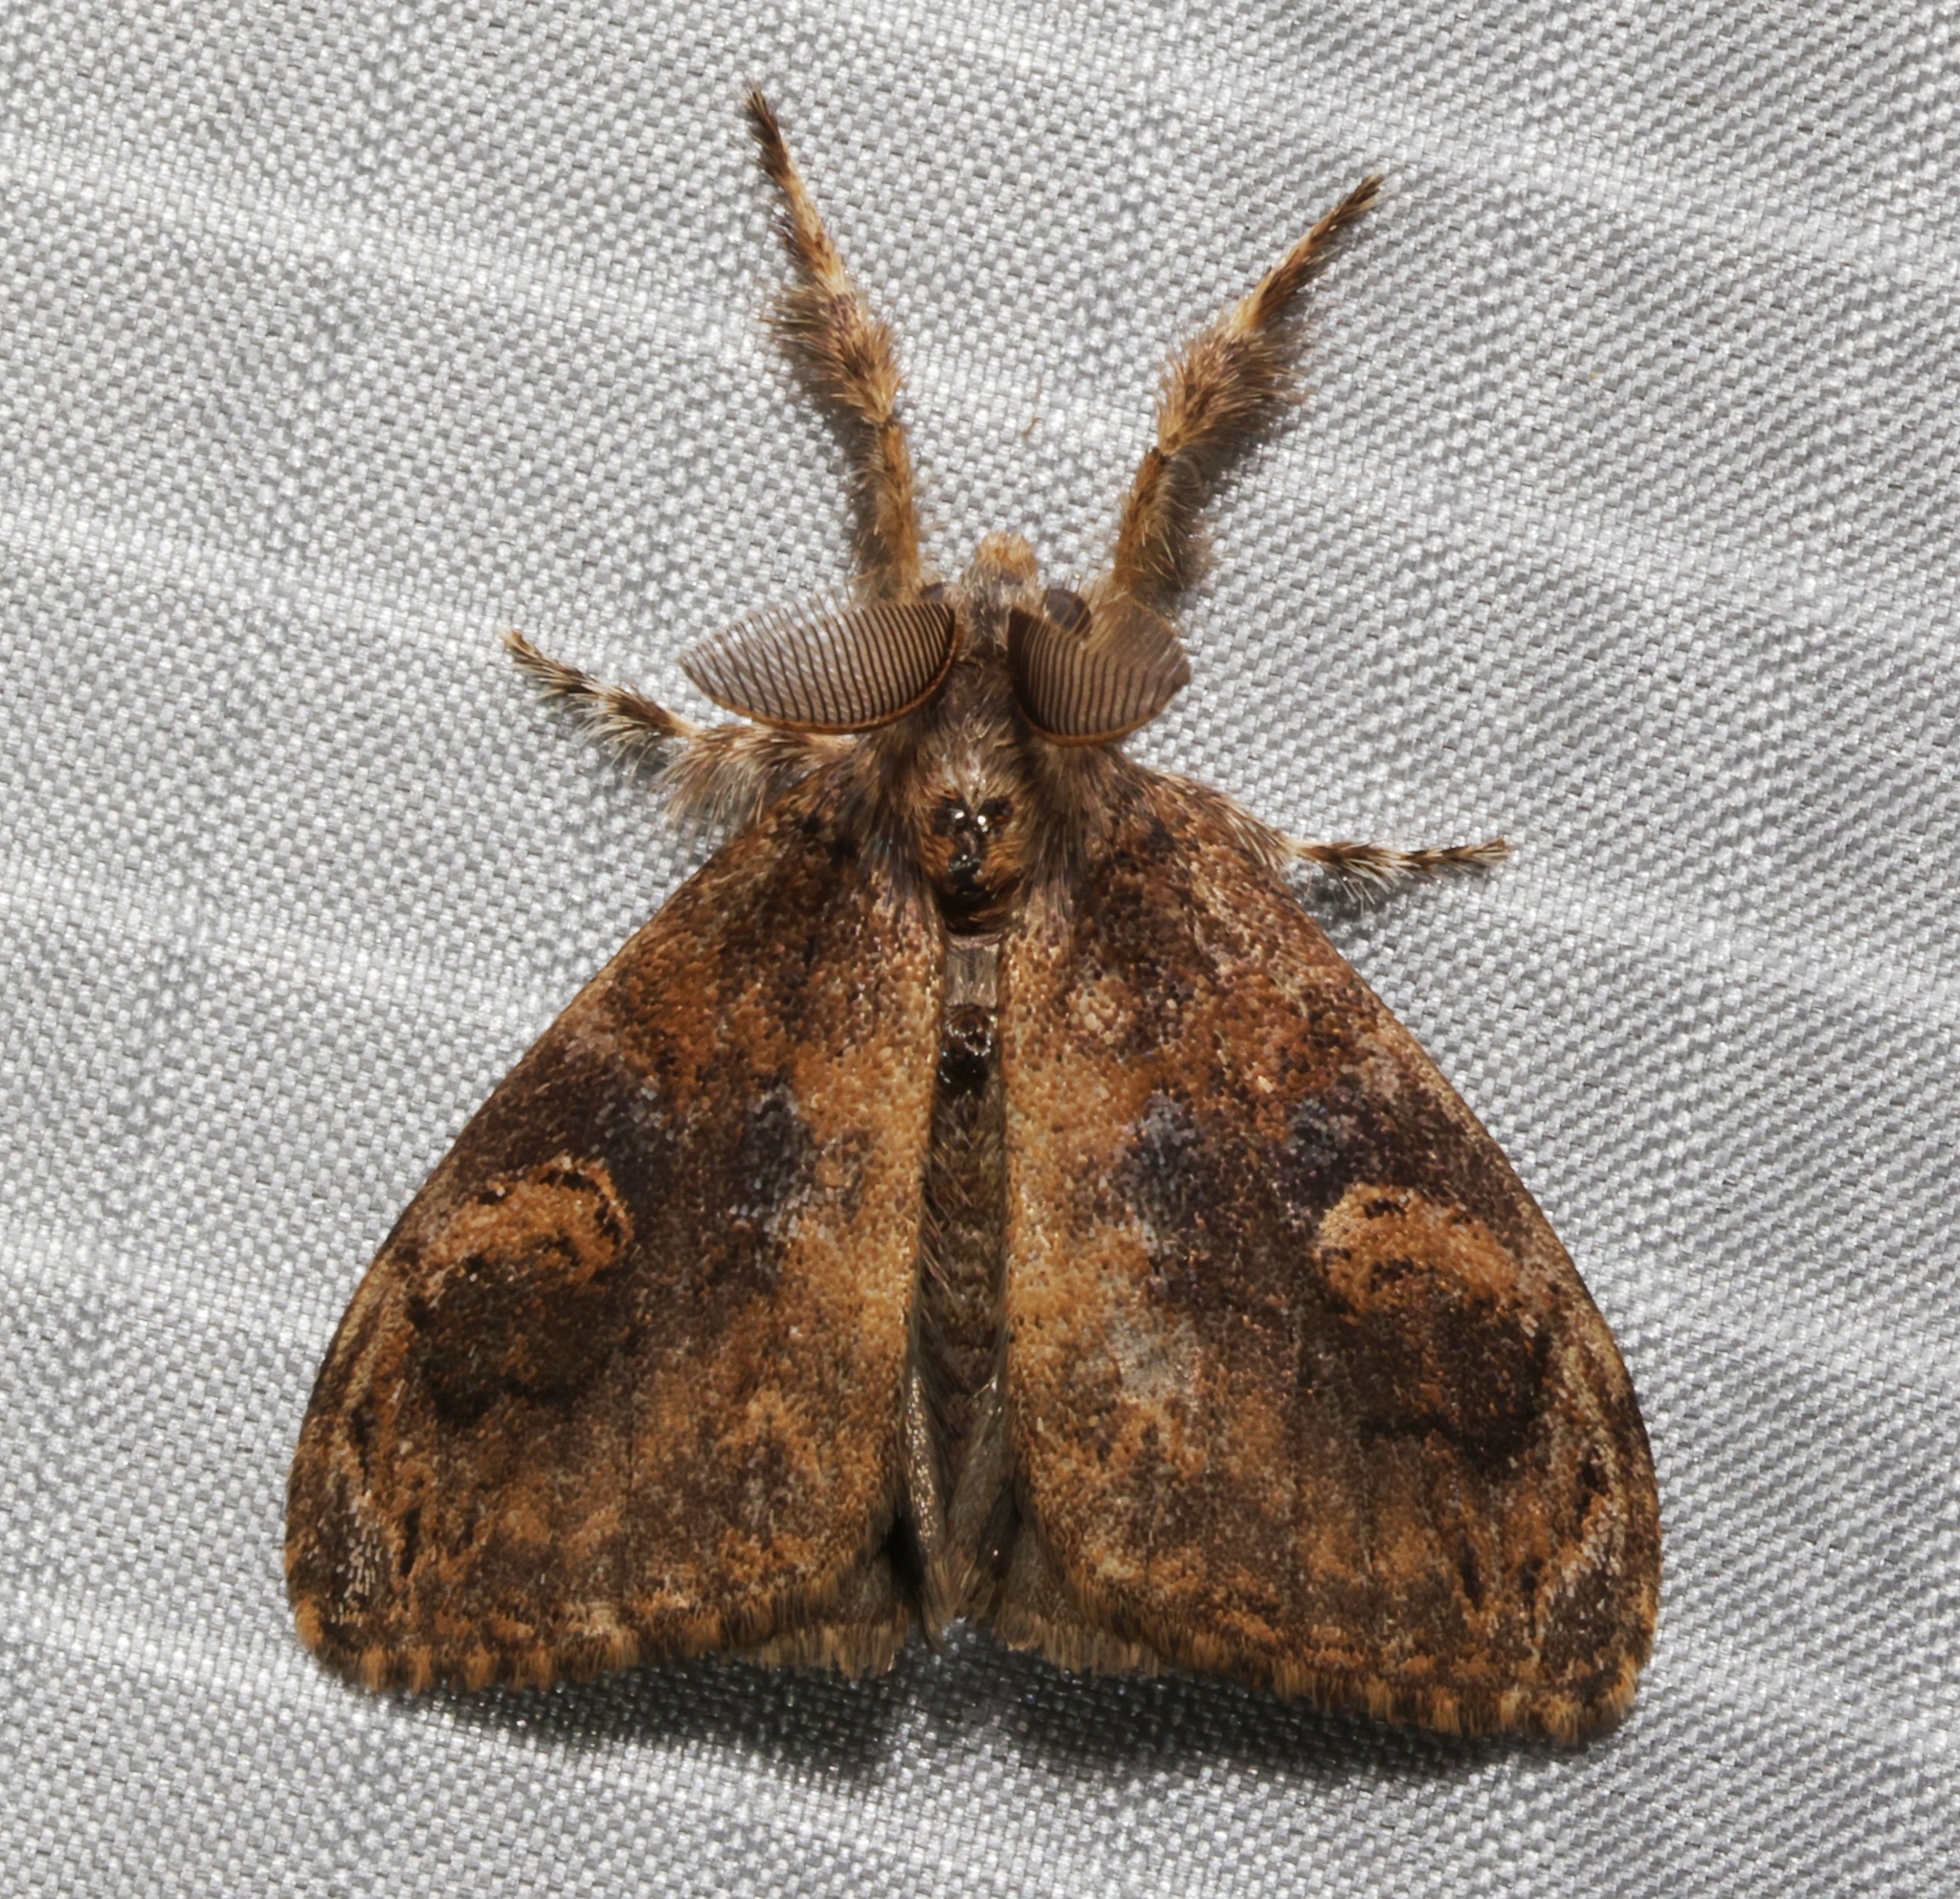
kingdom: Animalia
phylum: Arthropoda
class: Insecta
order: Lepidoptera
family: Erebidae
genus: Orgyia
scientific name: Orgyia postica
